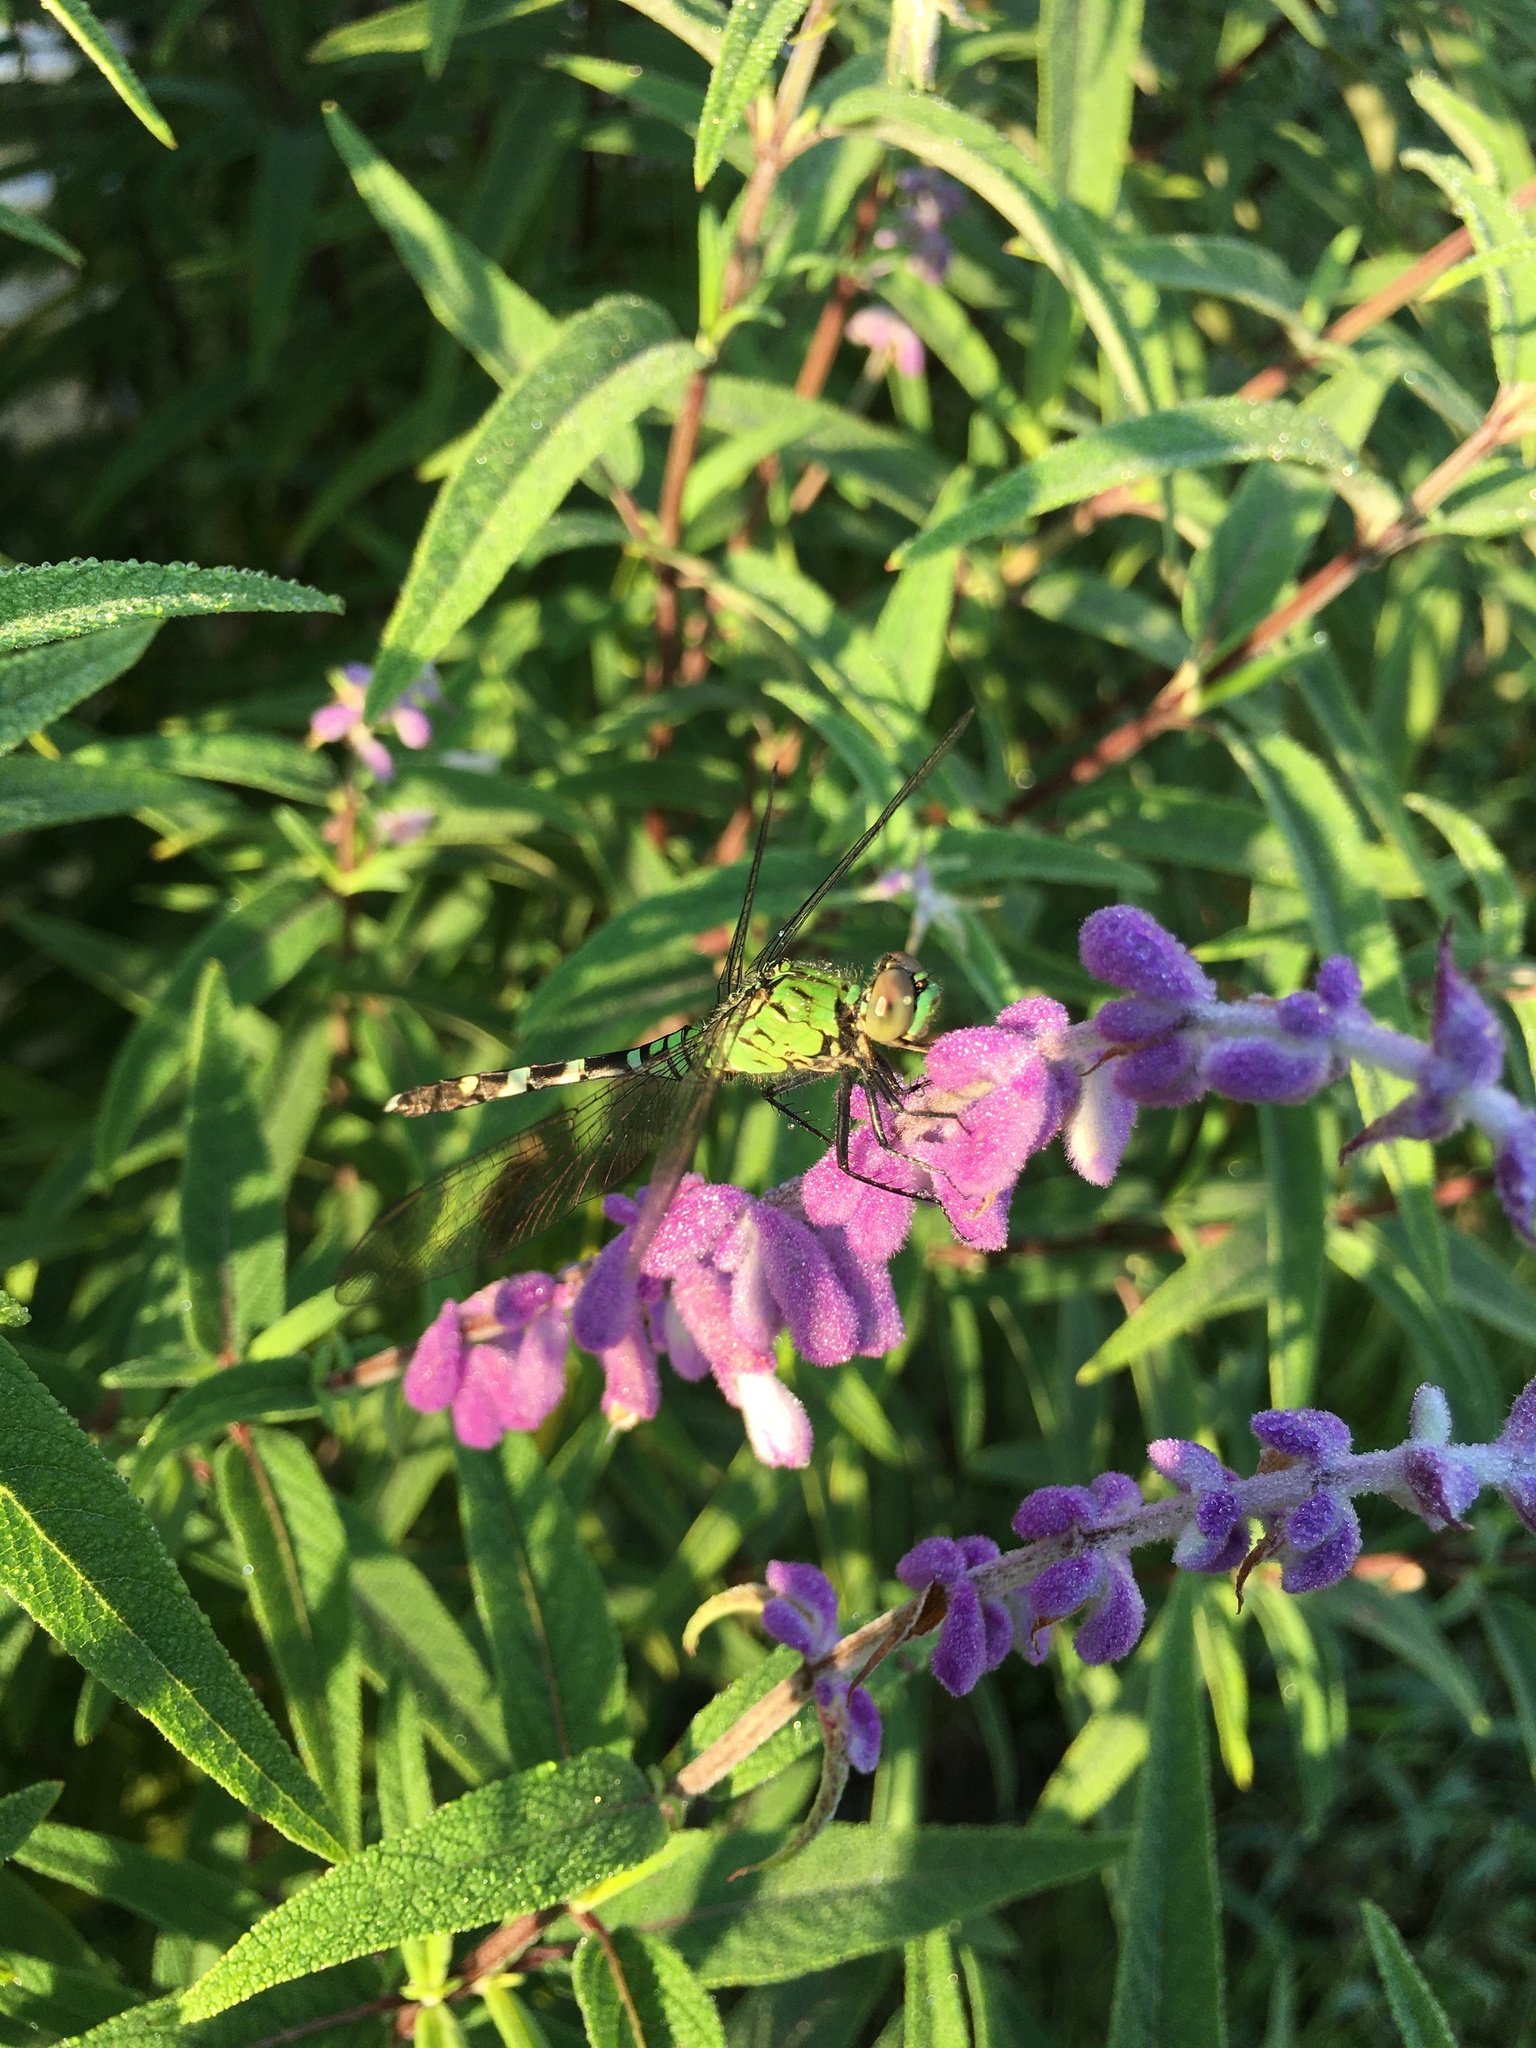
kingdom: Animalia
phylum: Arthropoda
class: Insecta
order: Odonata
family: Libellulidae
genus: Erythemis
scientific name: Erythemis simplicicollis
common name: Eastern pondhawk
